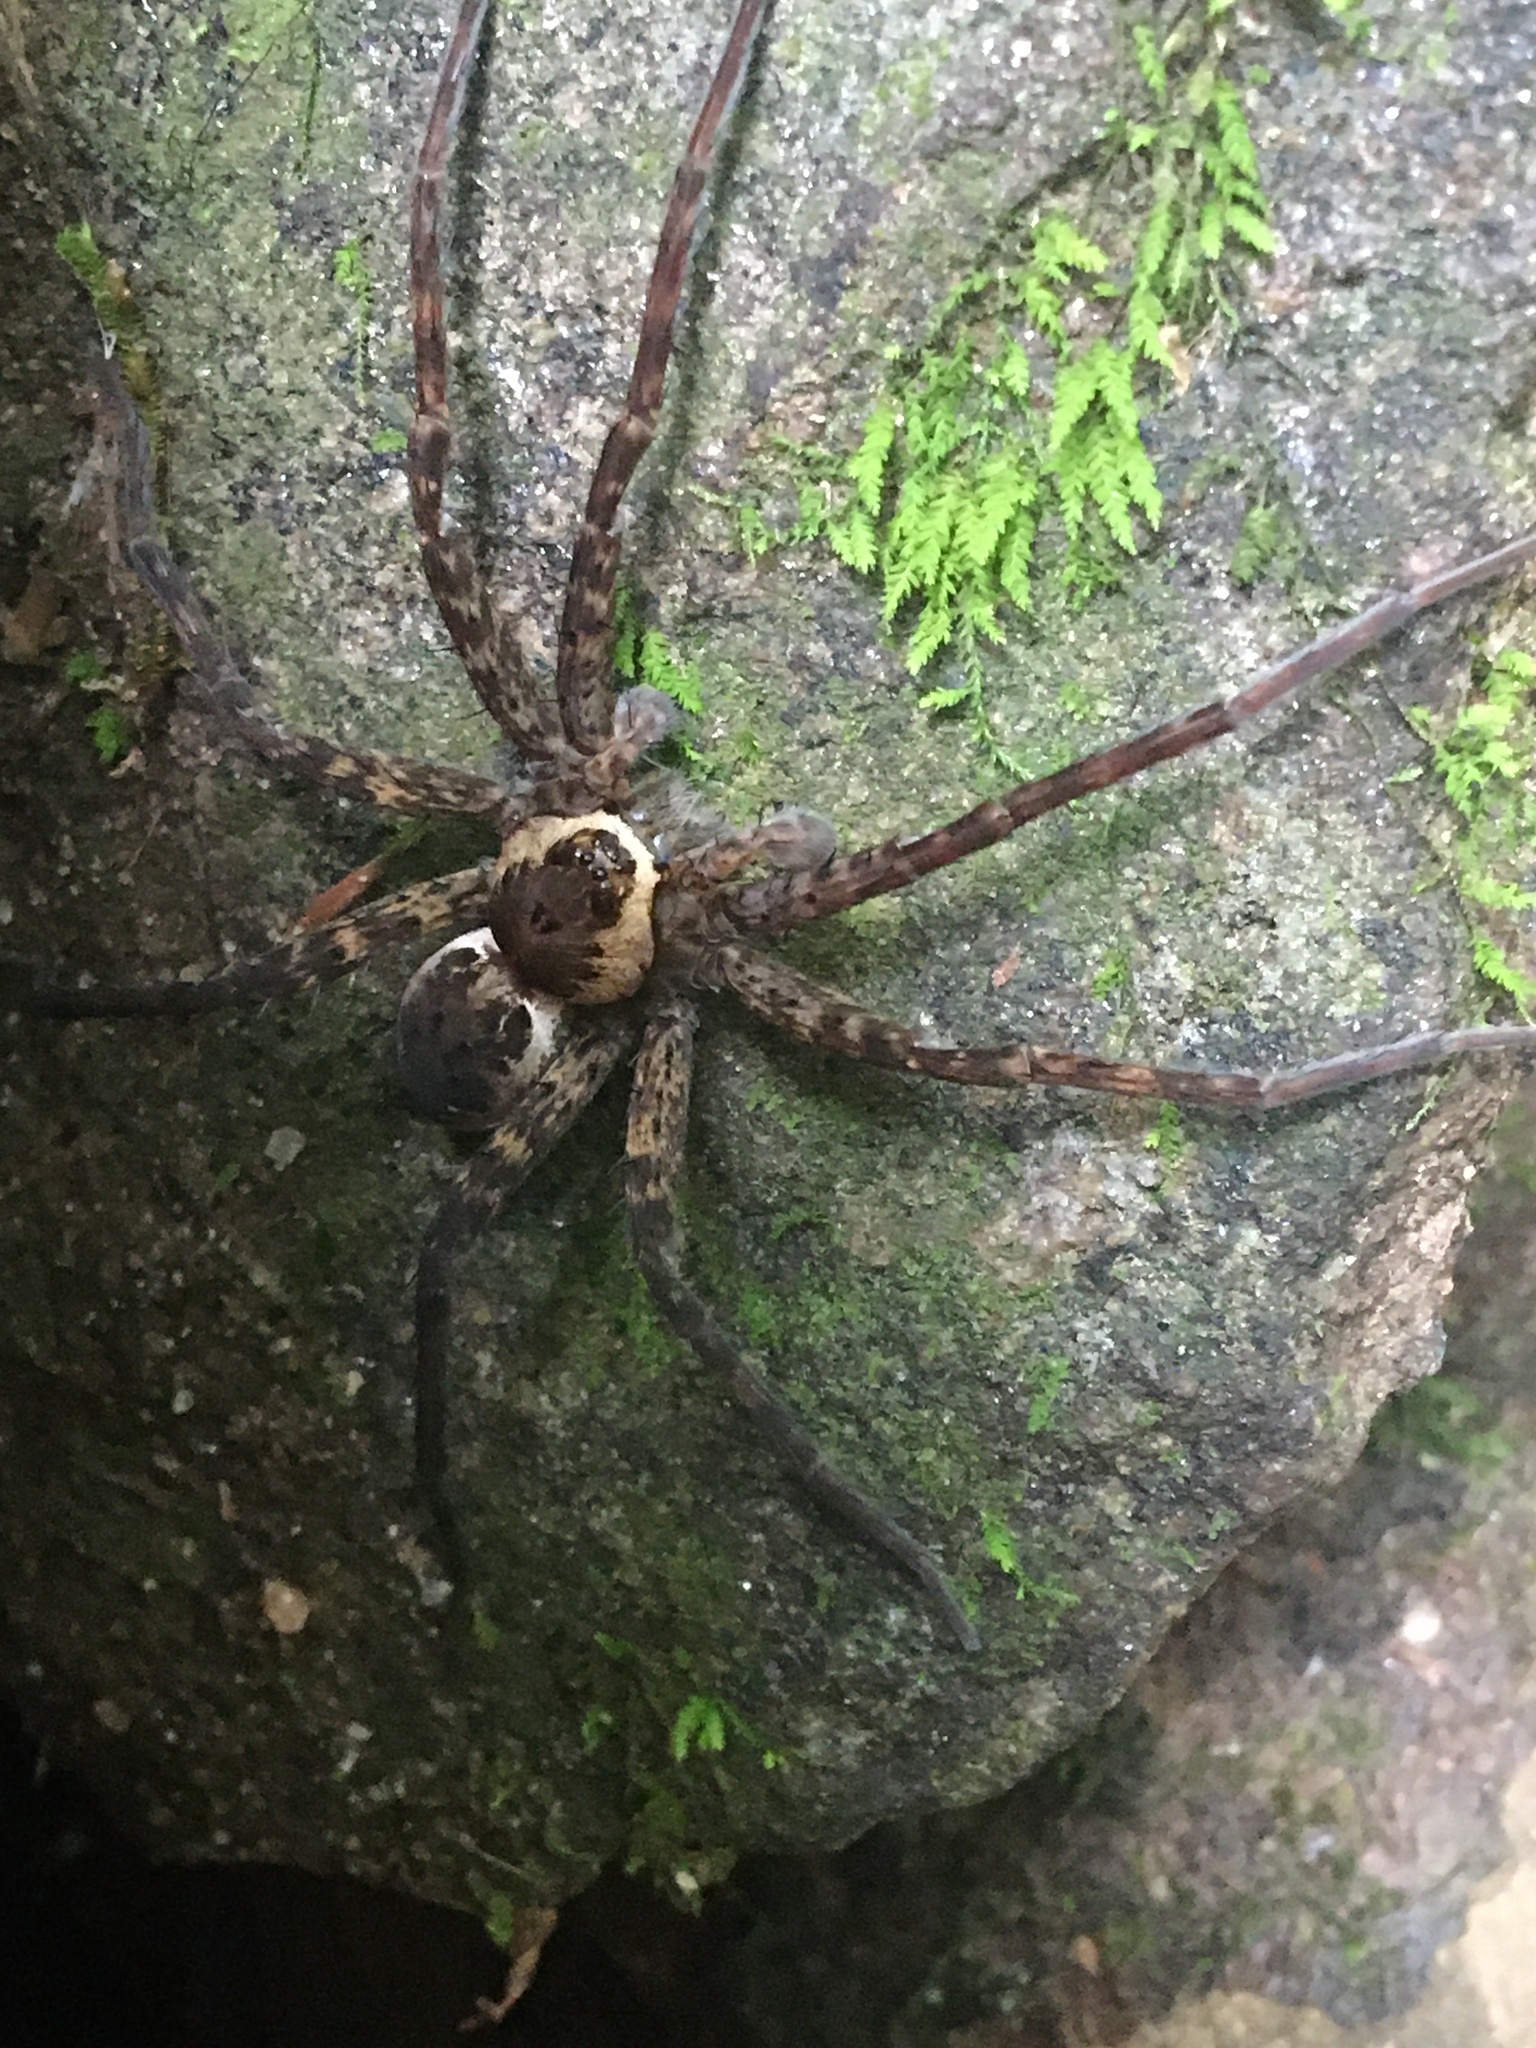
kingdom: Animalia
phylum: Arthropoda
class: Arachnida
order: Araneae
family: Pisauridae
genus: Dolomedes
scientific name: Dolomedes vittatus
